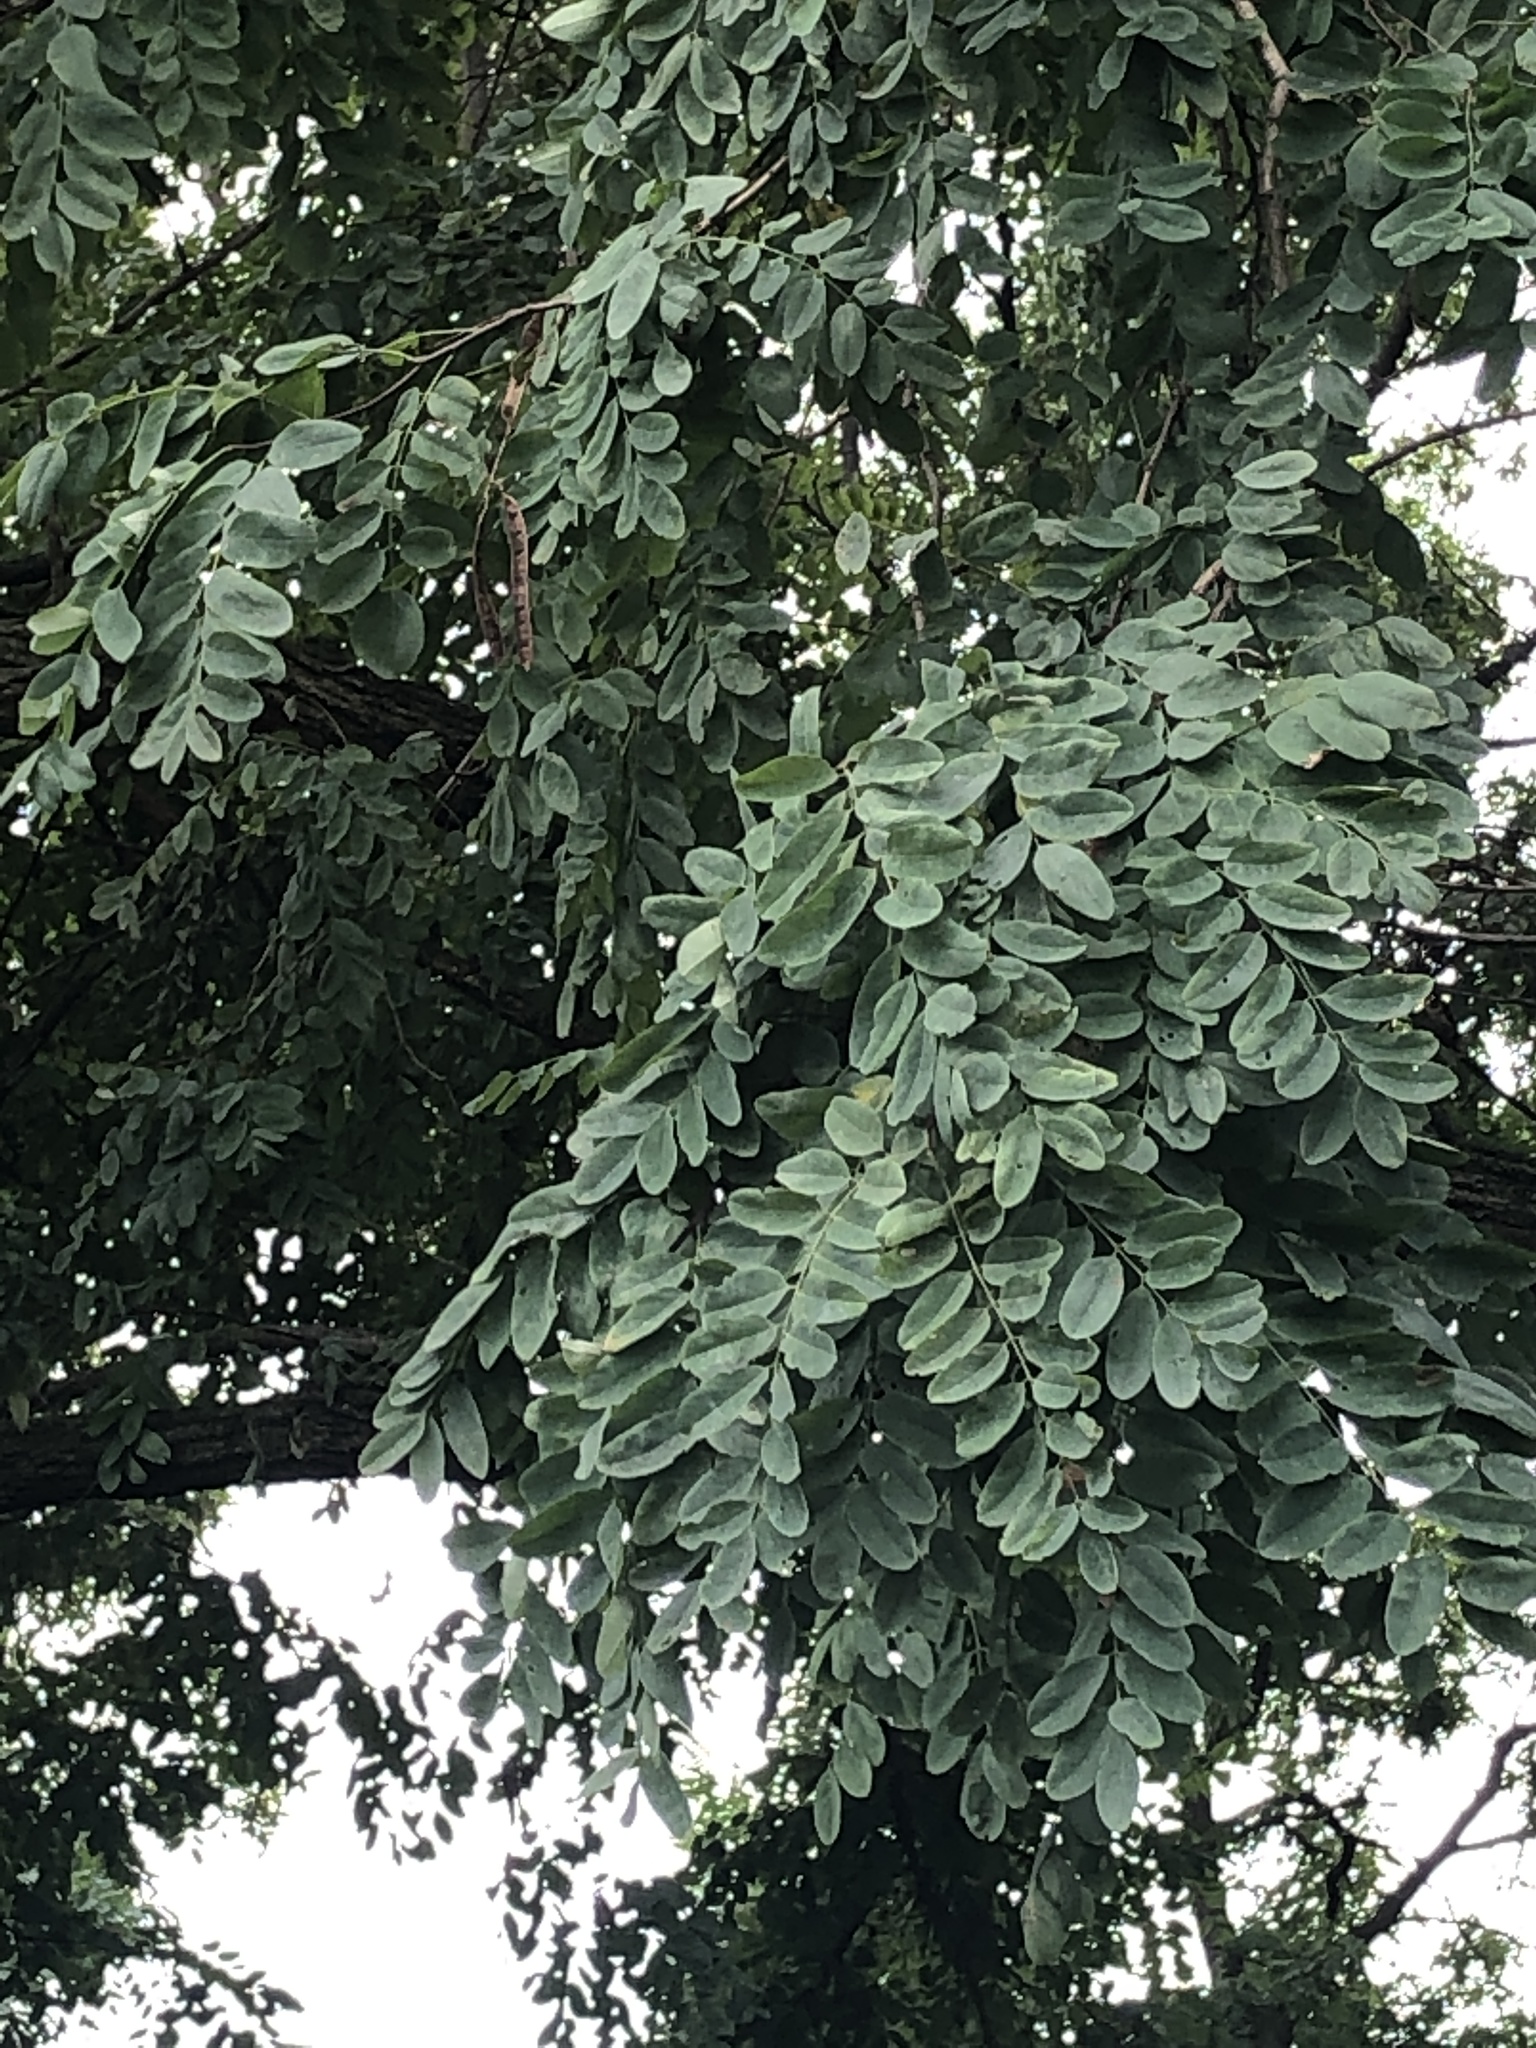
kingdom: Plantae
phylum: Tracheophyta
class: Magnoliopsida
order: Fabales
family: Fabaceae
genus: Robinia
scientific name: Robinia pseudoacacia
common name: Black locust
